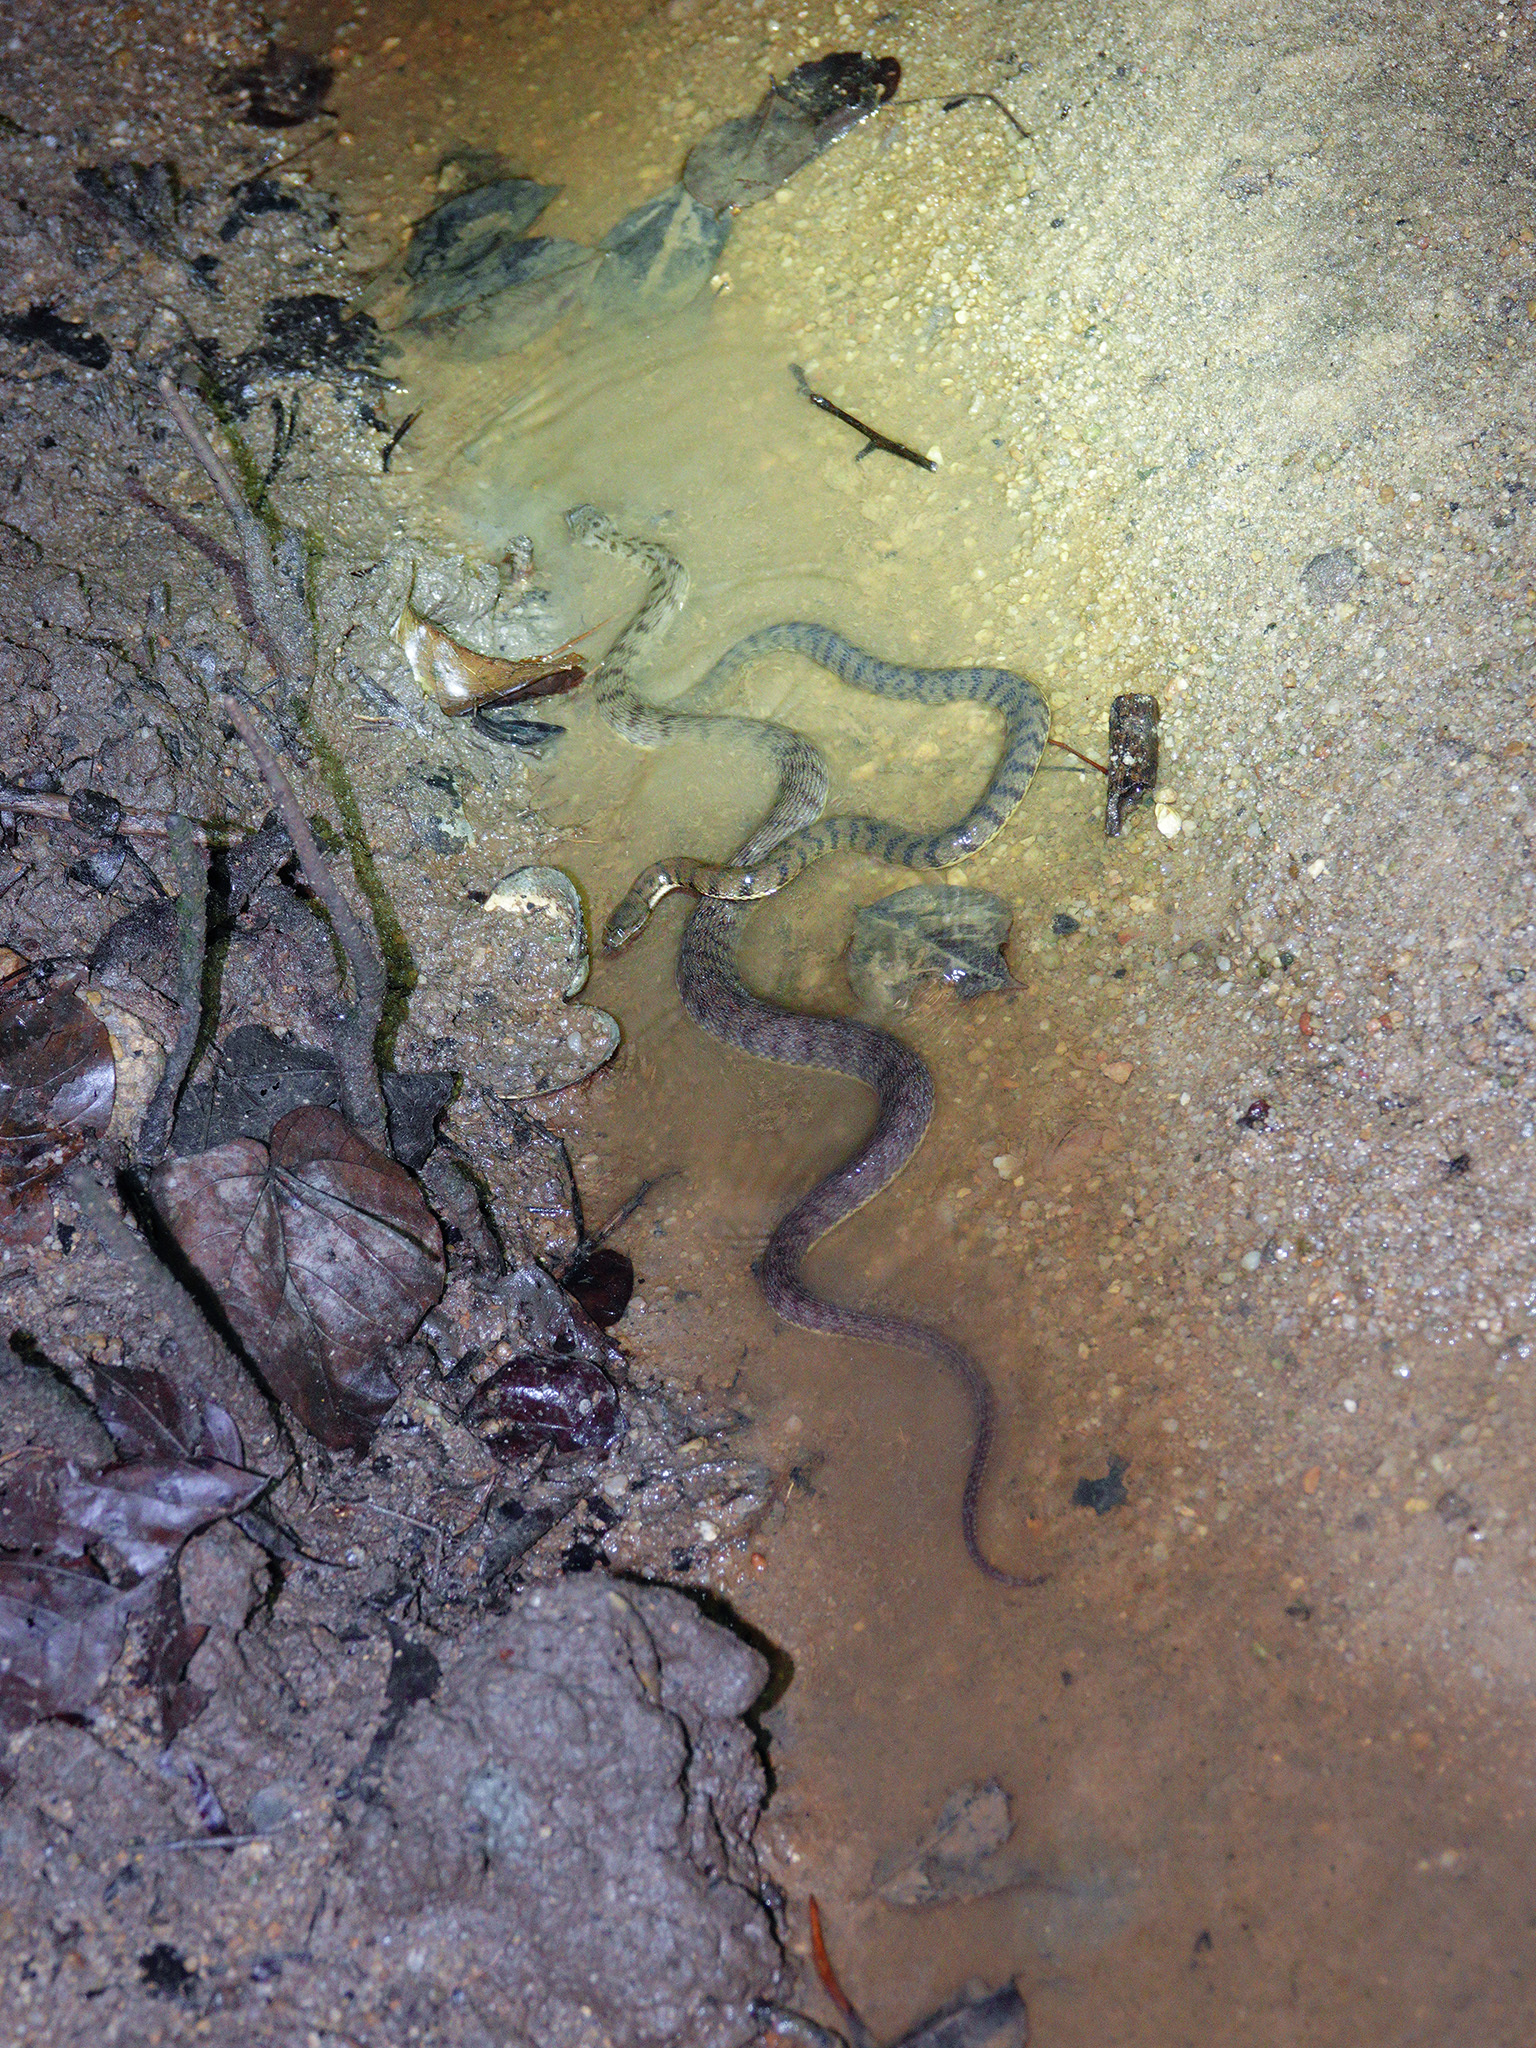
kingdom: Animalia
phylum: Chordata
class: Squamata
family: Homalopsidae
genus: Cerberus
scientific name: Cerberus schneiderii
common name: Southeast asian bockadam
